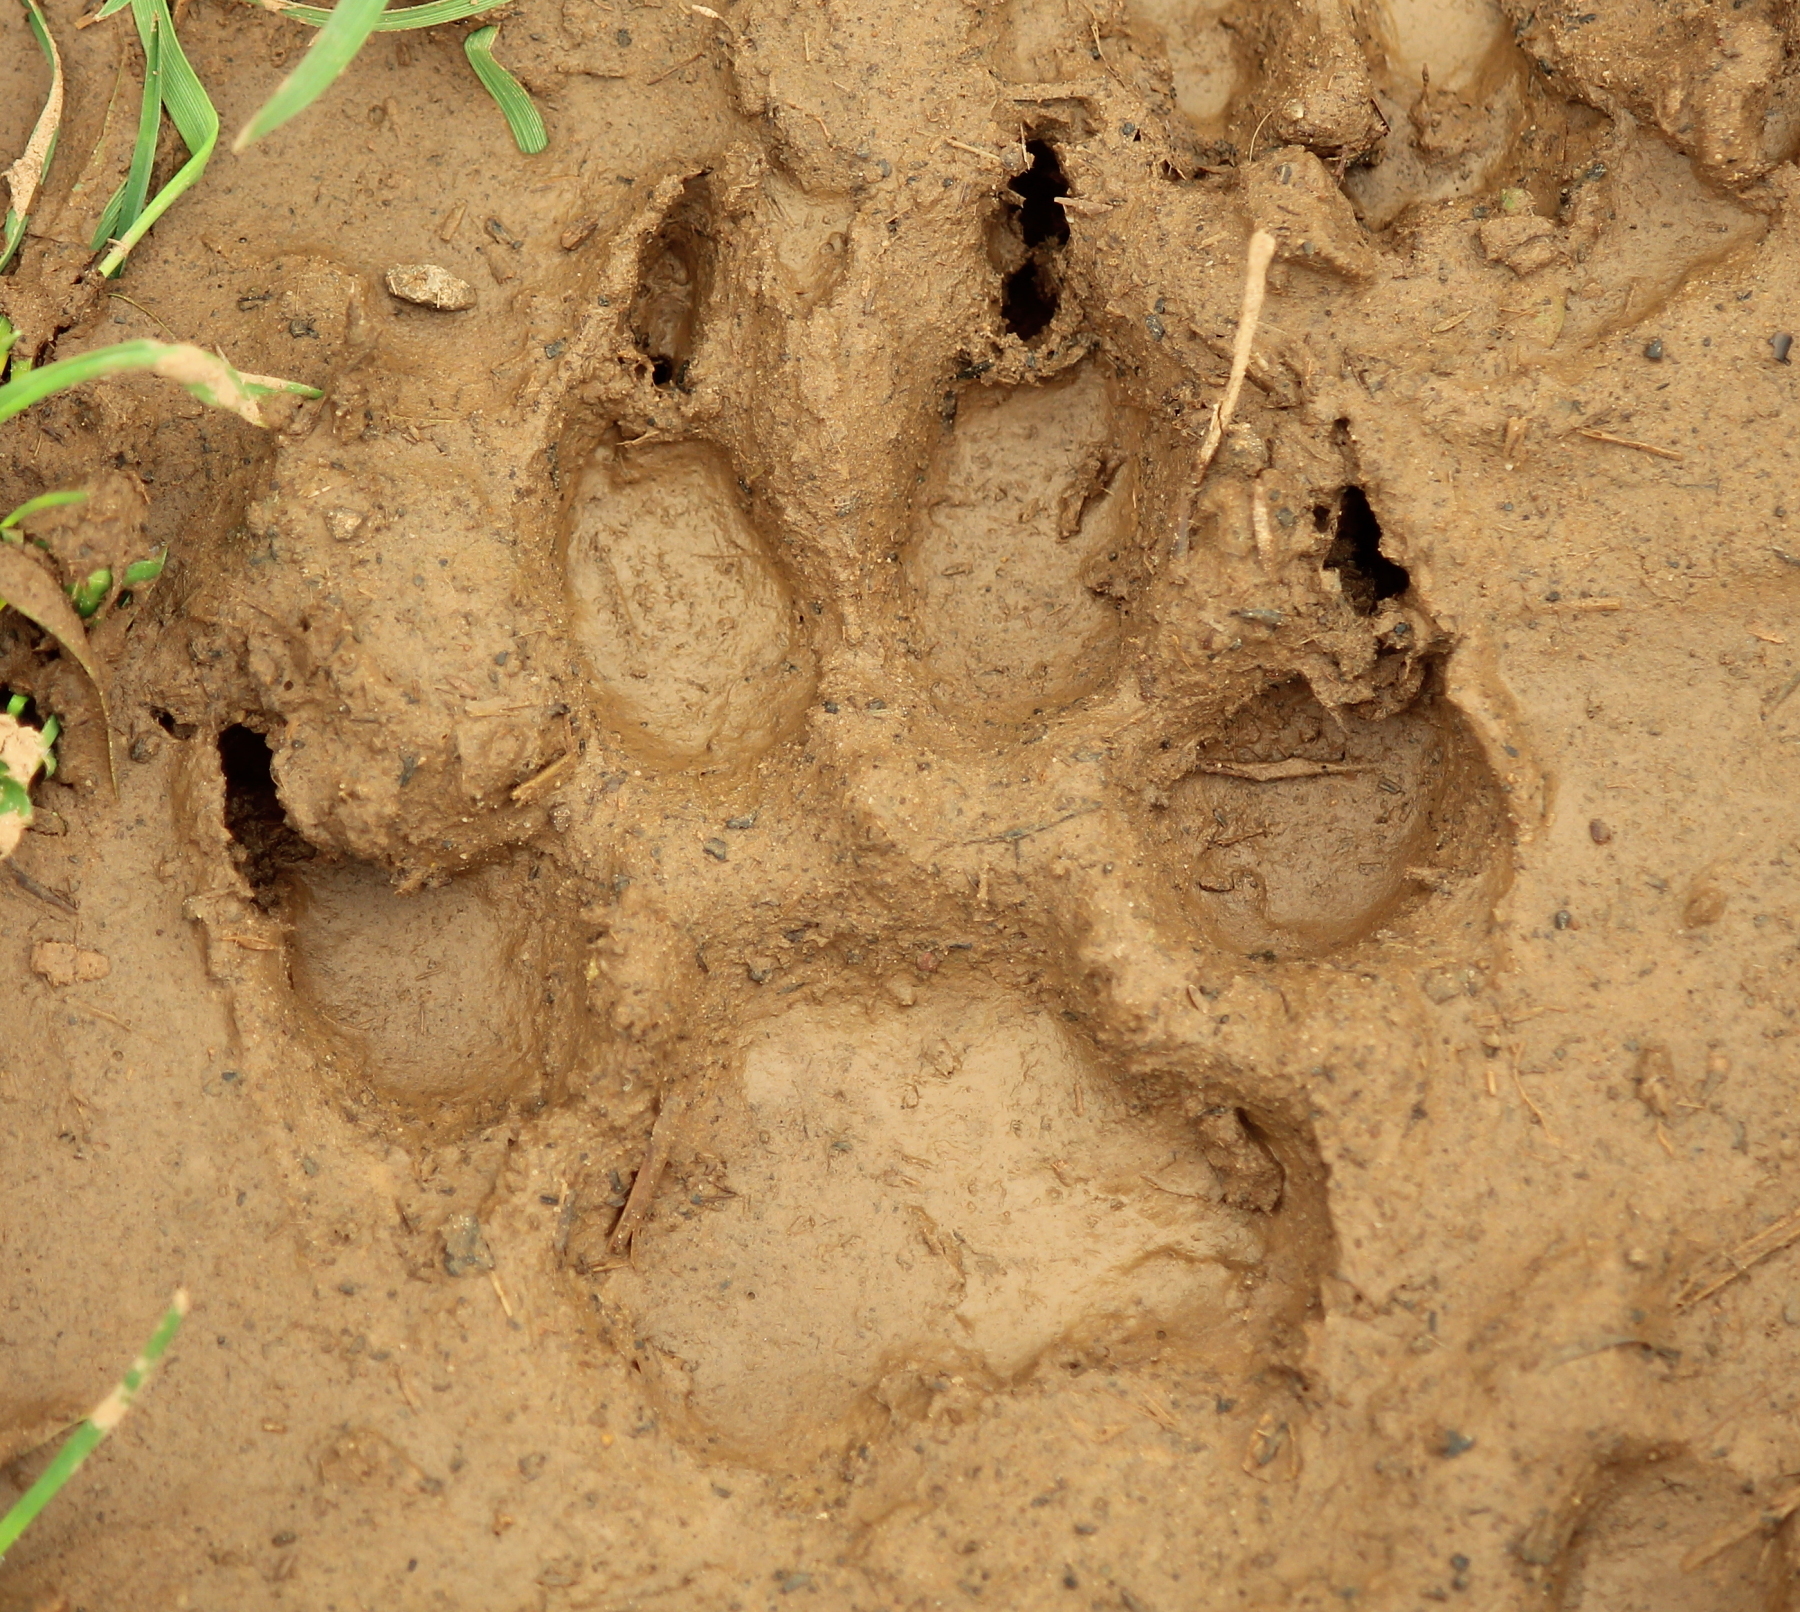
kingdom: Animalia
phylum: Chordata
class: Mammalia
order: Carnivora
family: Canidae
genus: Canis
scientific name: Canis latrans
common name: Coyote
